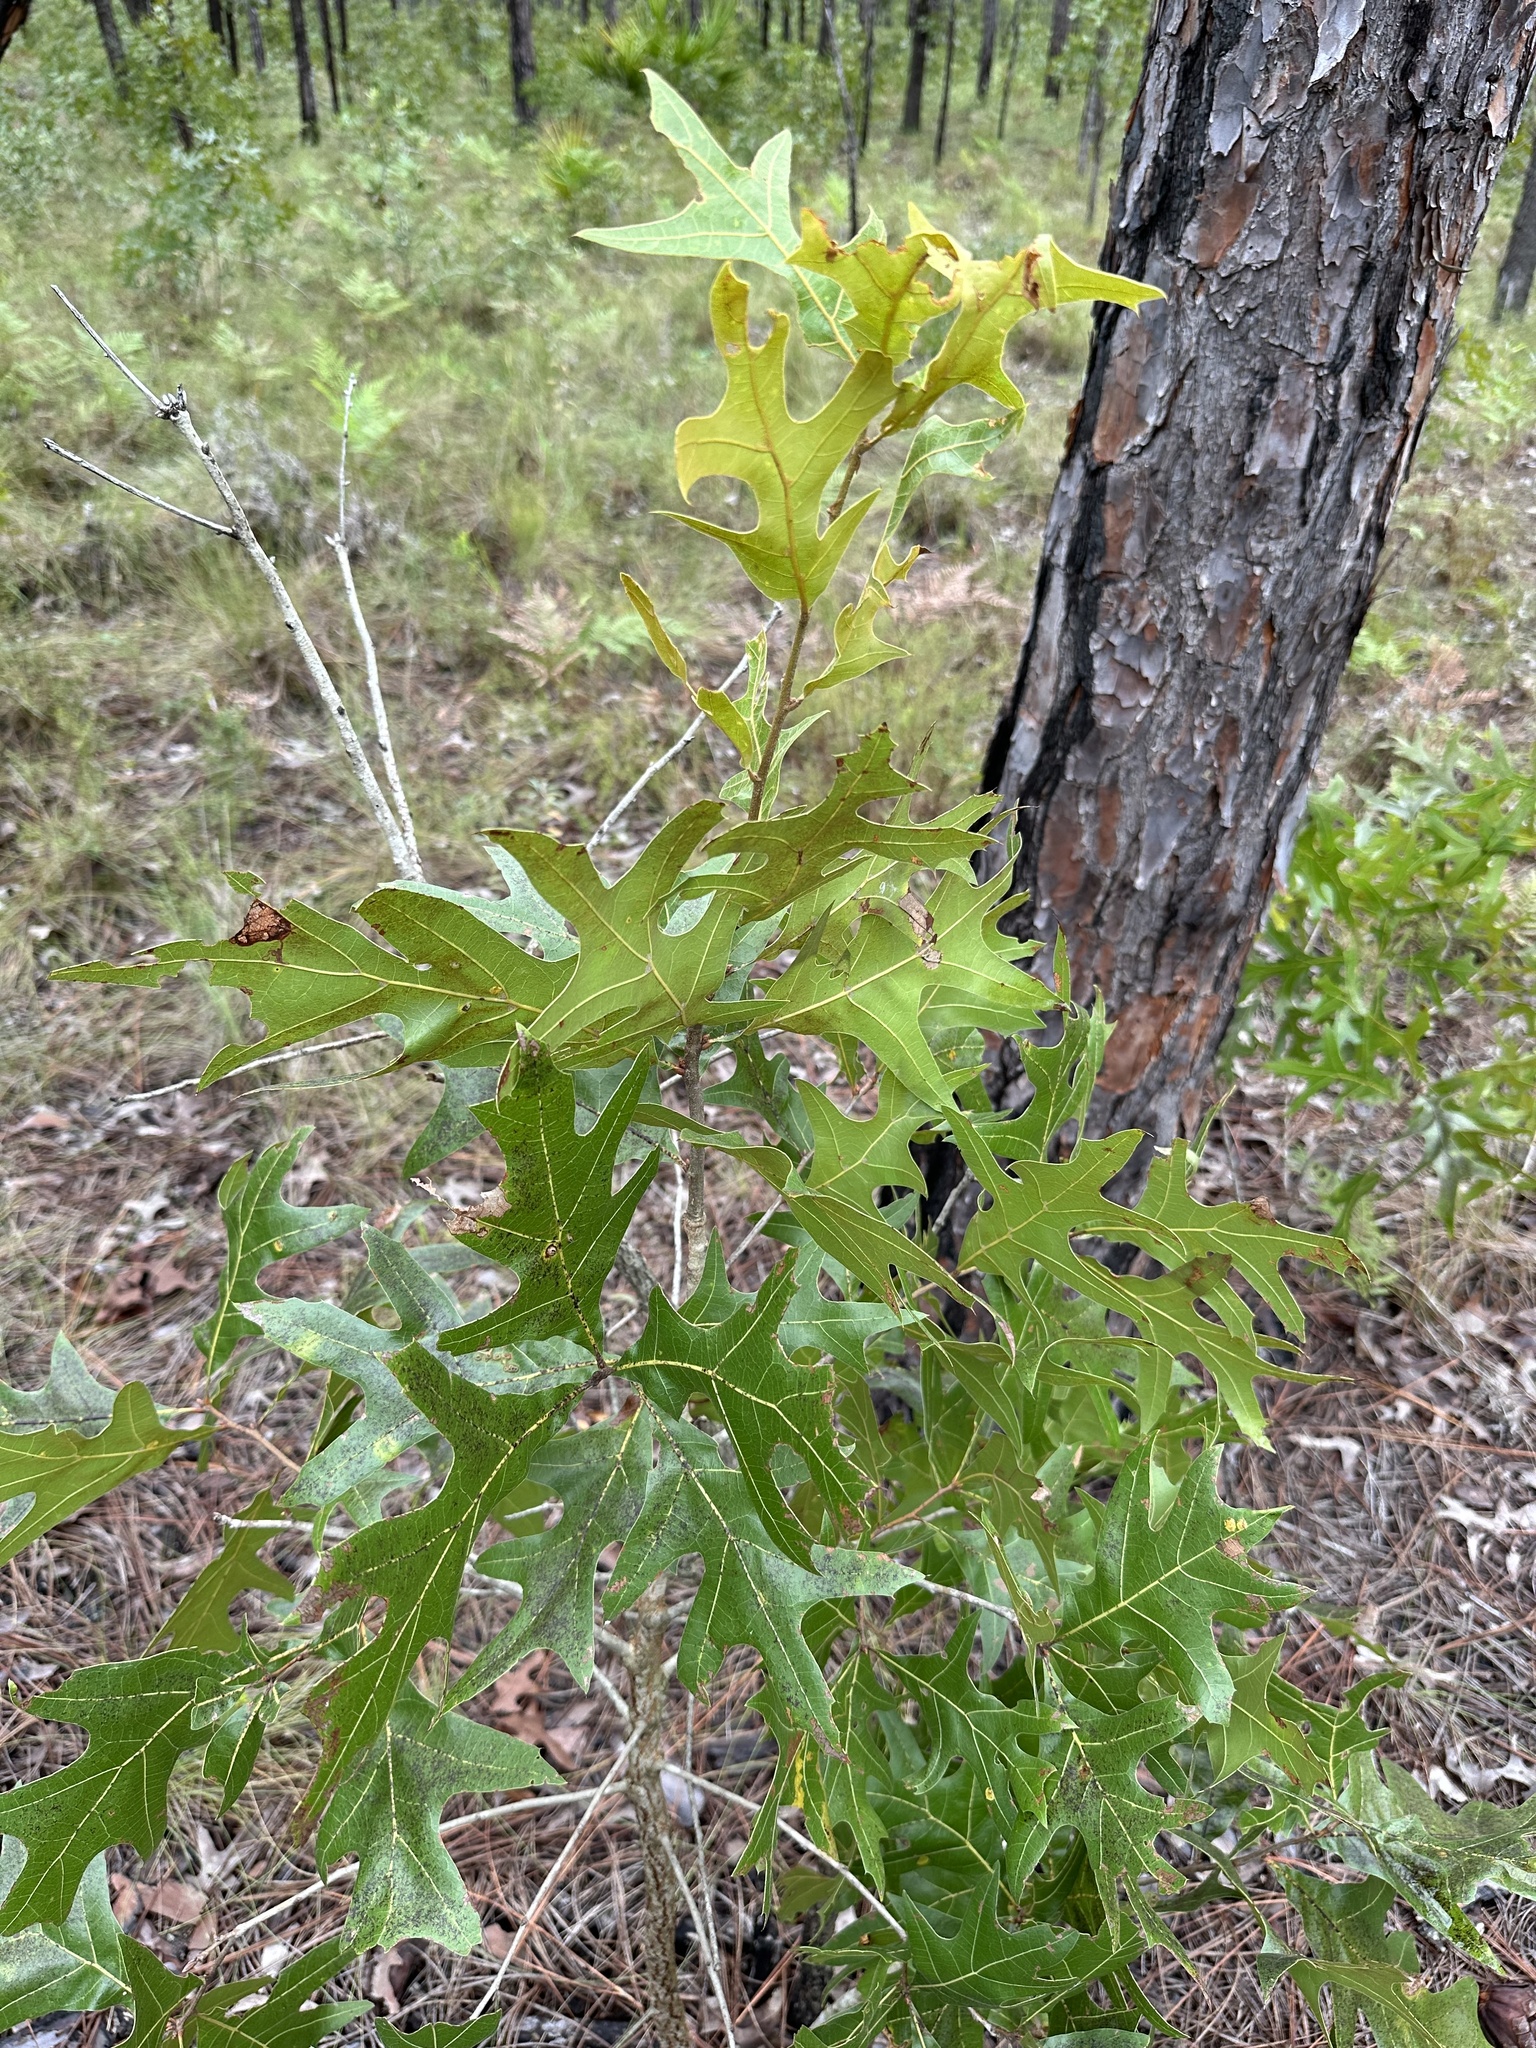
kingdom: Plantae
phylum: Tracheophyta
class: Magnoliopsida
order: Fagales
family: Fagaceae
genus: Quercus
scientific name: Quercus laevis
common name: Turkey oak
